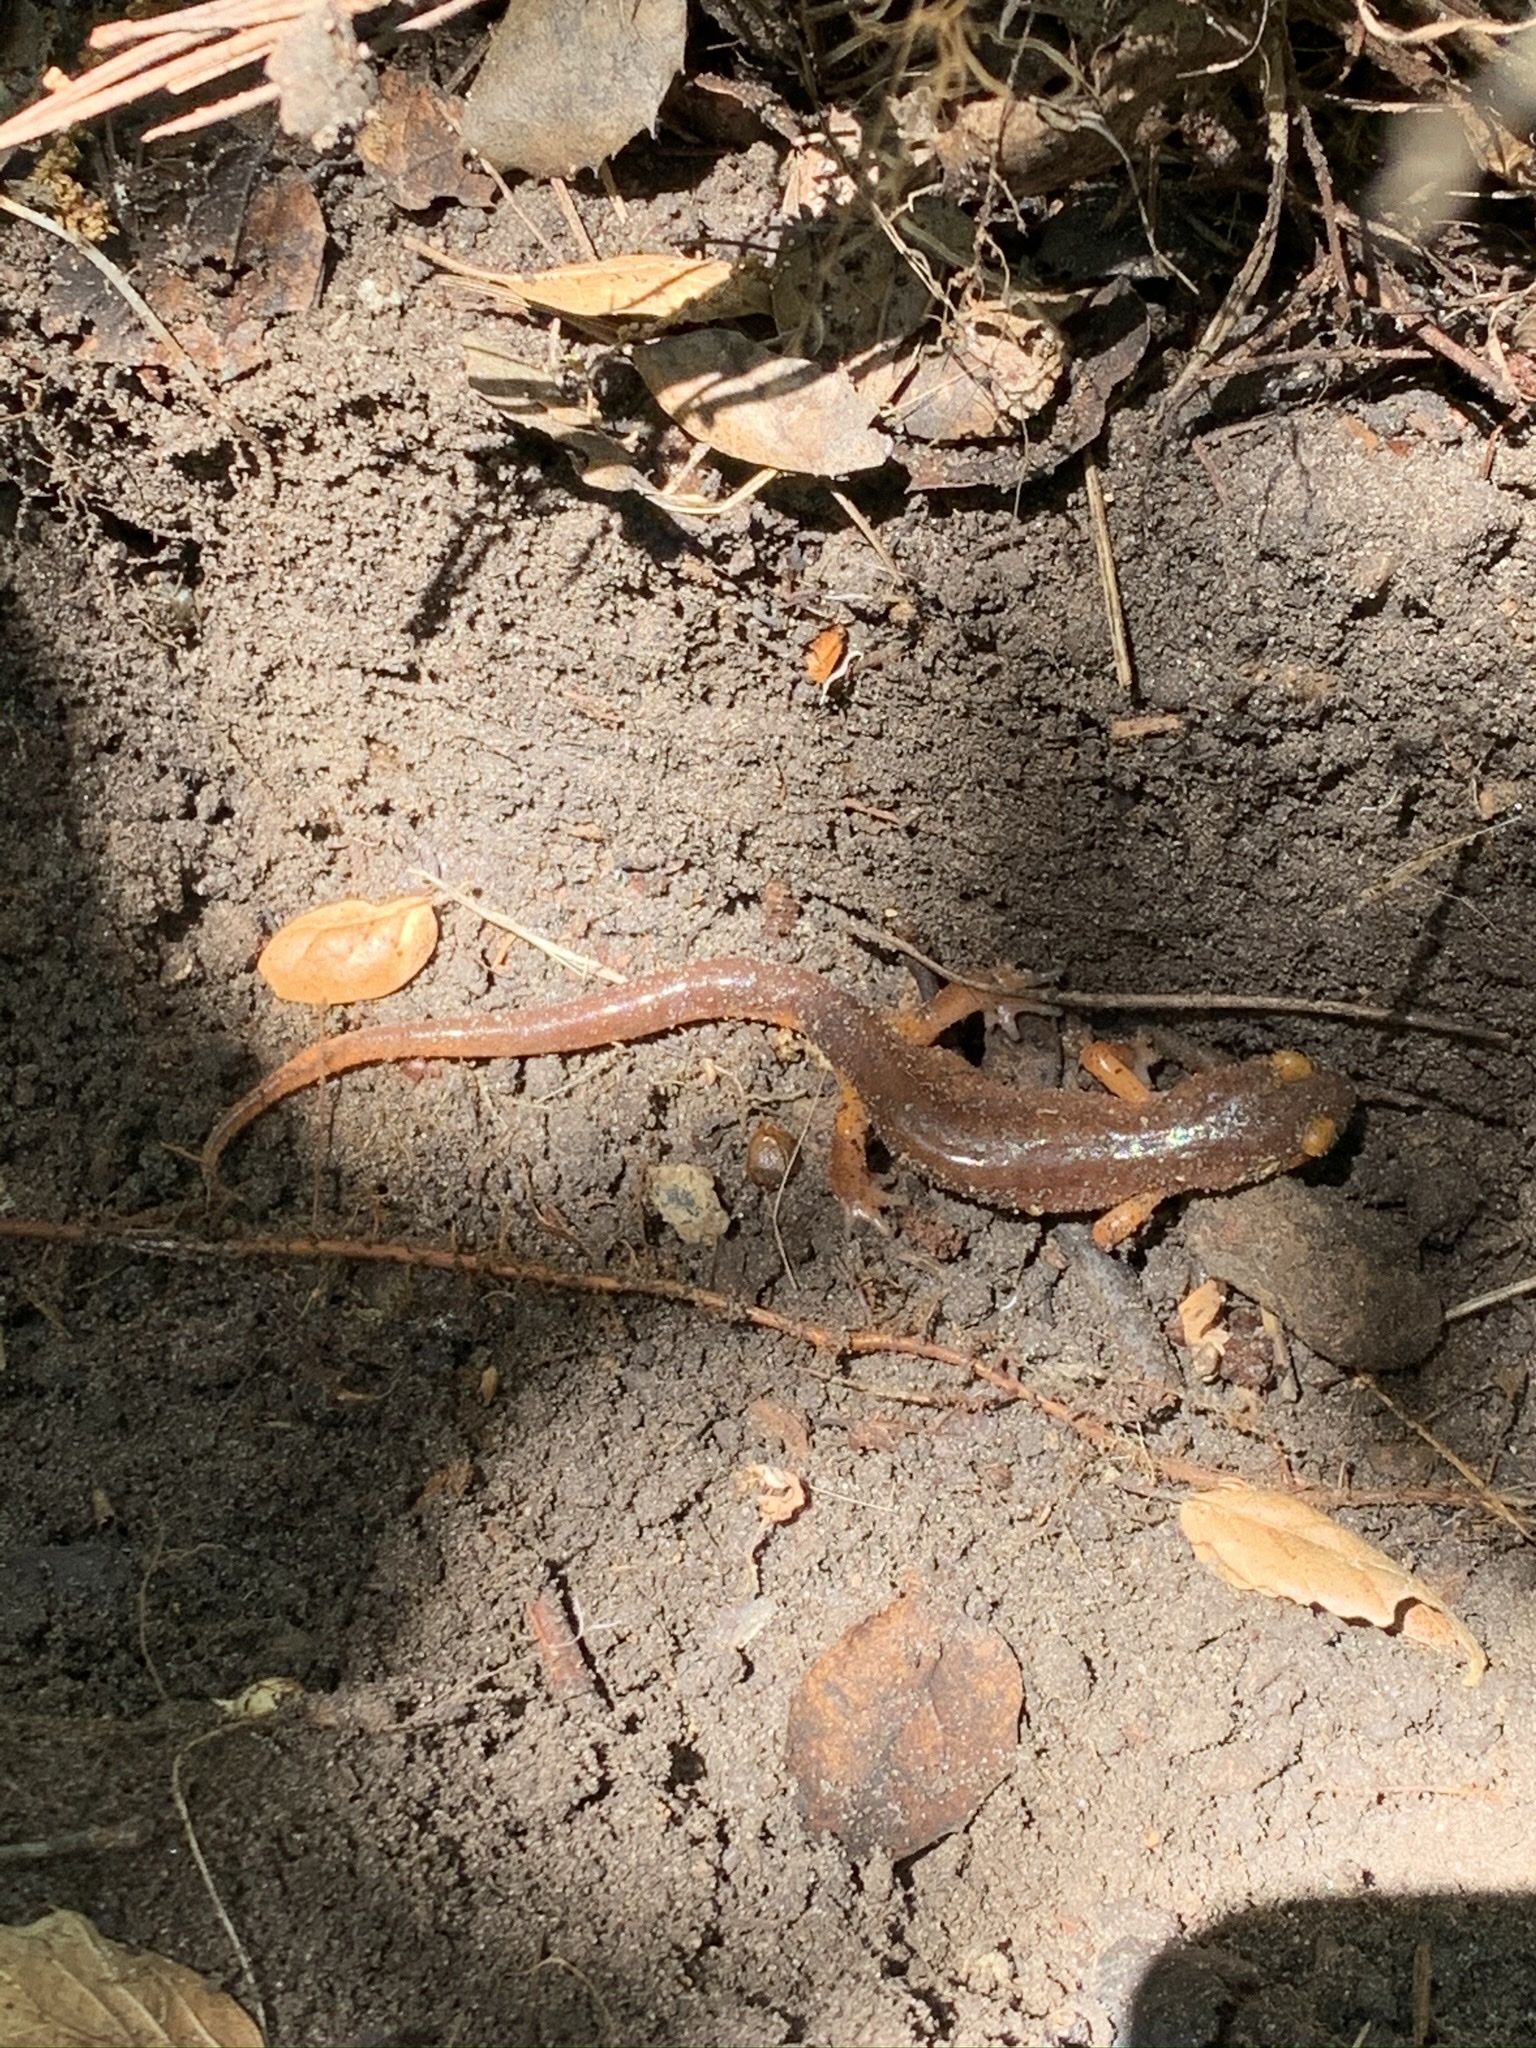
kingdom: Animalia
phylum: Chordata
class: Amphibia
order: Caudata
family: Plethodontidae
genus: Ensatina
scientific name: Ensatina eschscholtzii
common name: Ensatina
